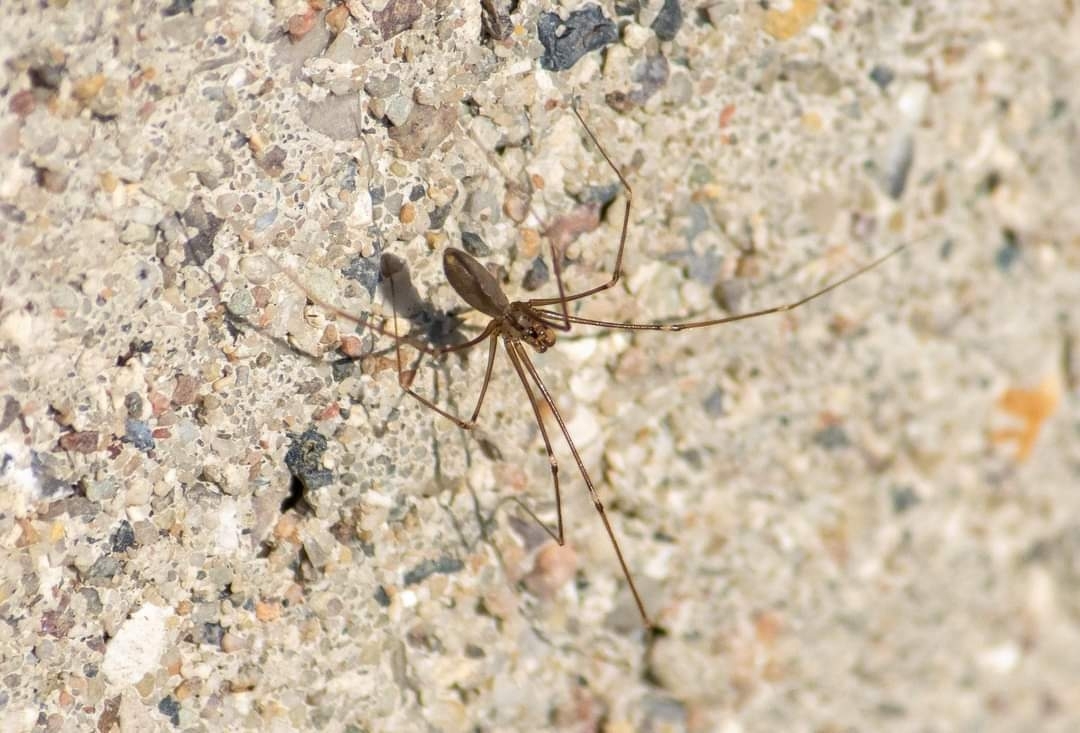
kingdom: Animalia
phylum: Arthropoda
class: Arachnida
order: Araneae
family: Pholcidae
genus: Pholcus
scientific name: Pholcus opilionoides
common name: Daddylongleg spider
